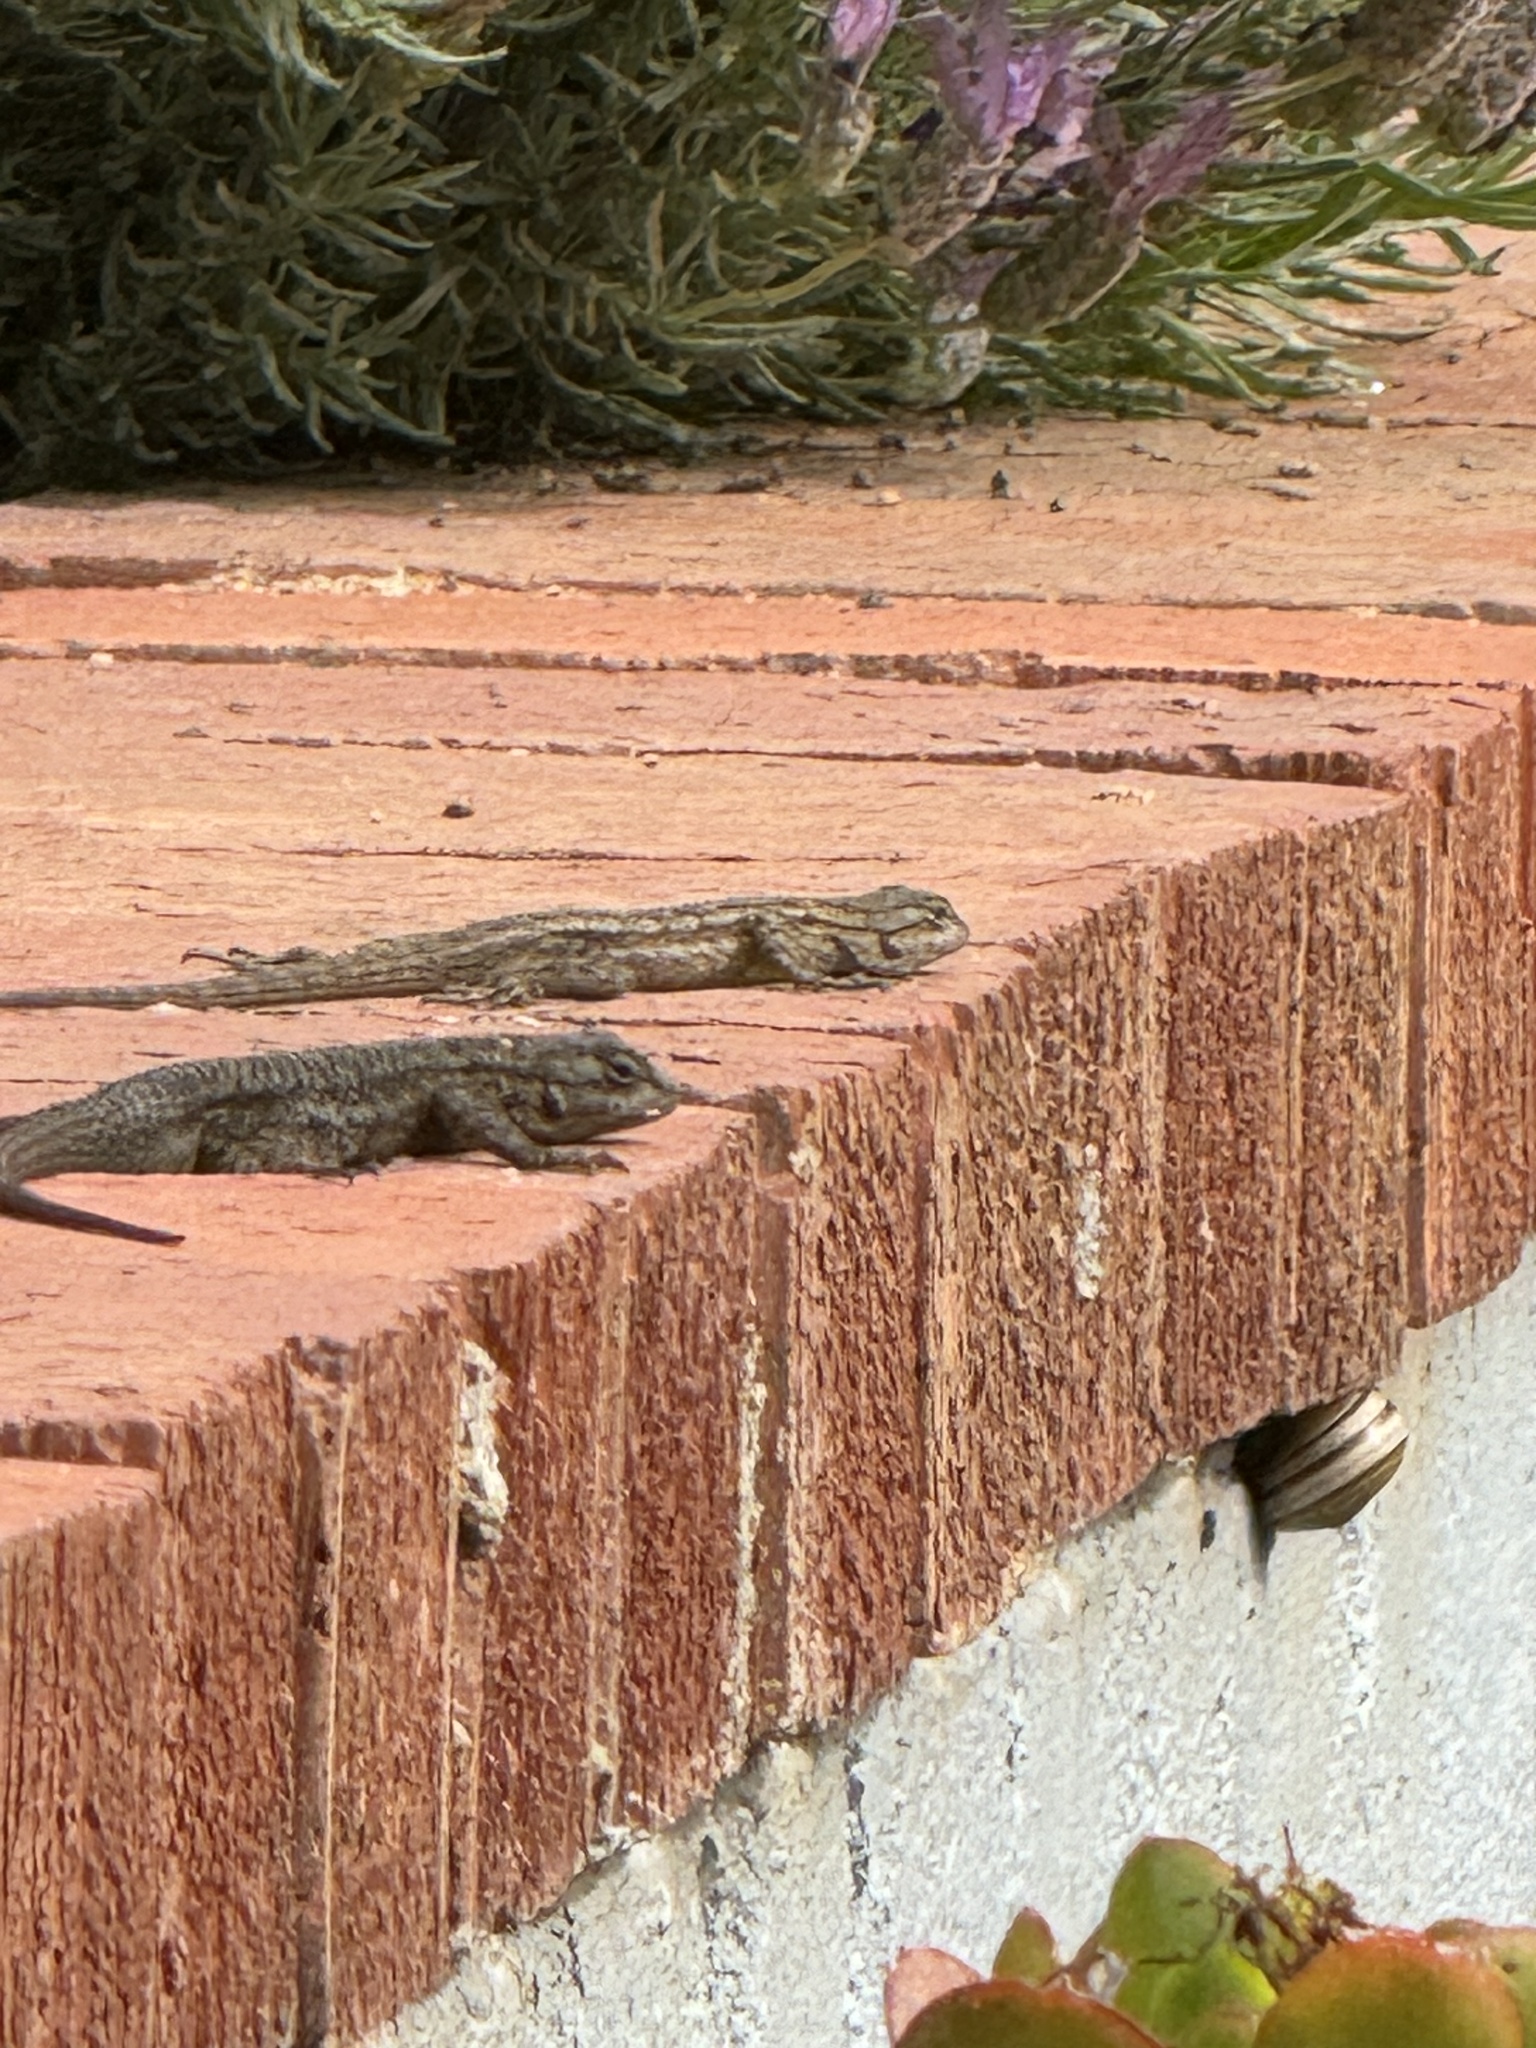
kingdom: Animalia
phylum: Chordata
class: Squamata
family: Phrynosomatidae
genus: Sceloporus
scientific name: Sceloporus occidentalis
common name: Western fence lizard
